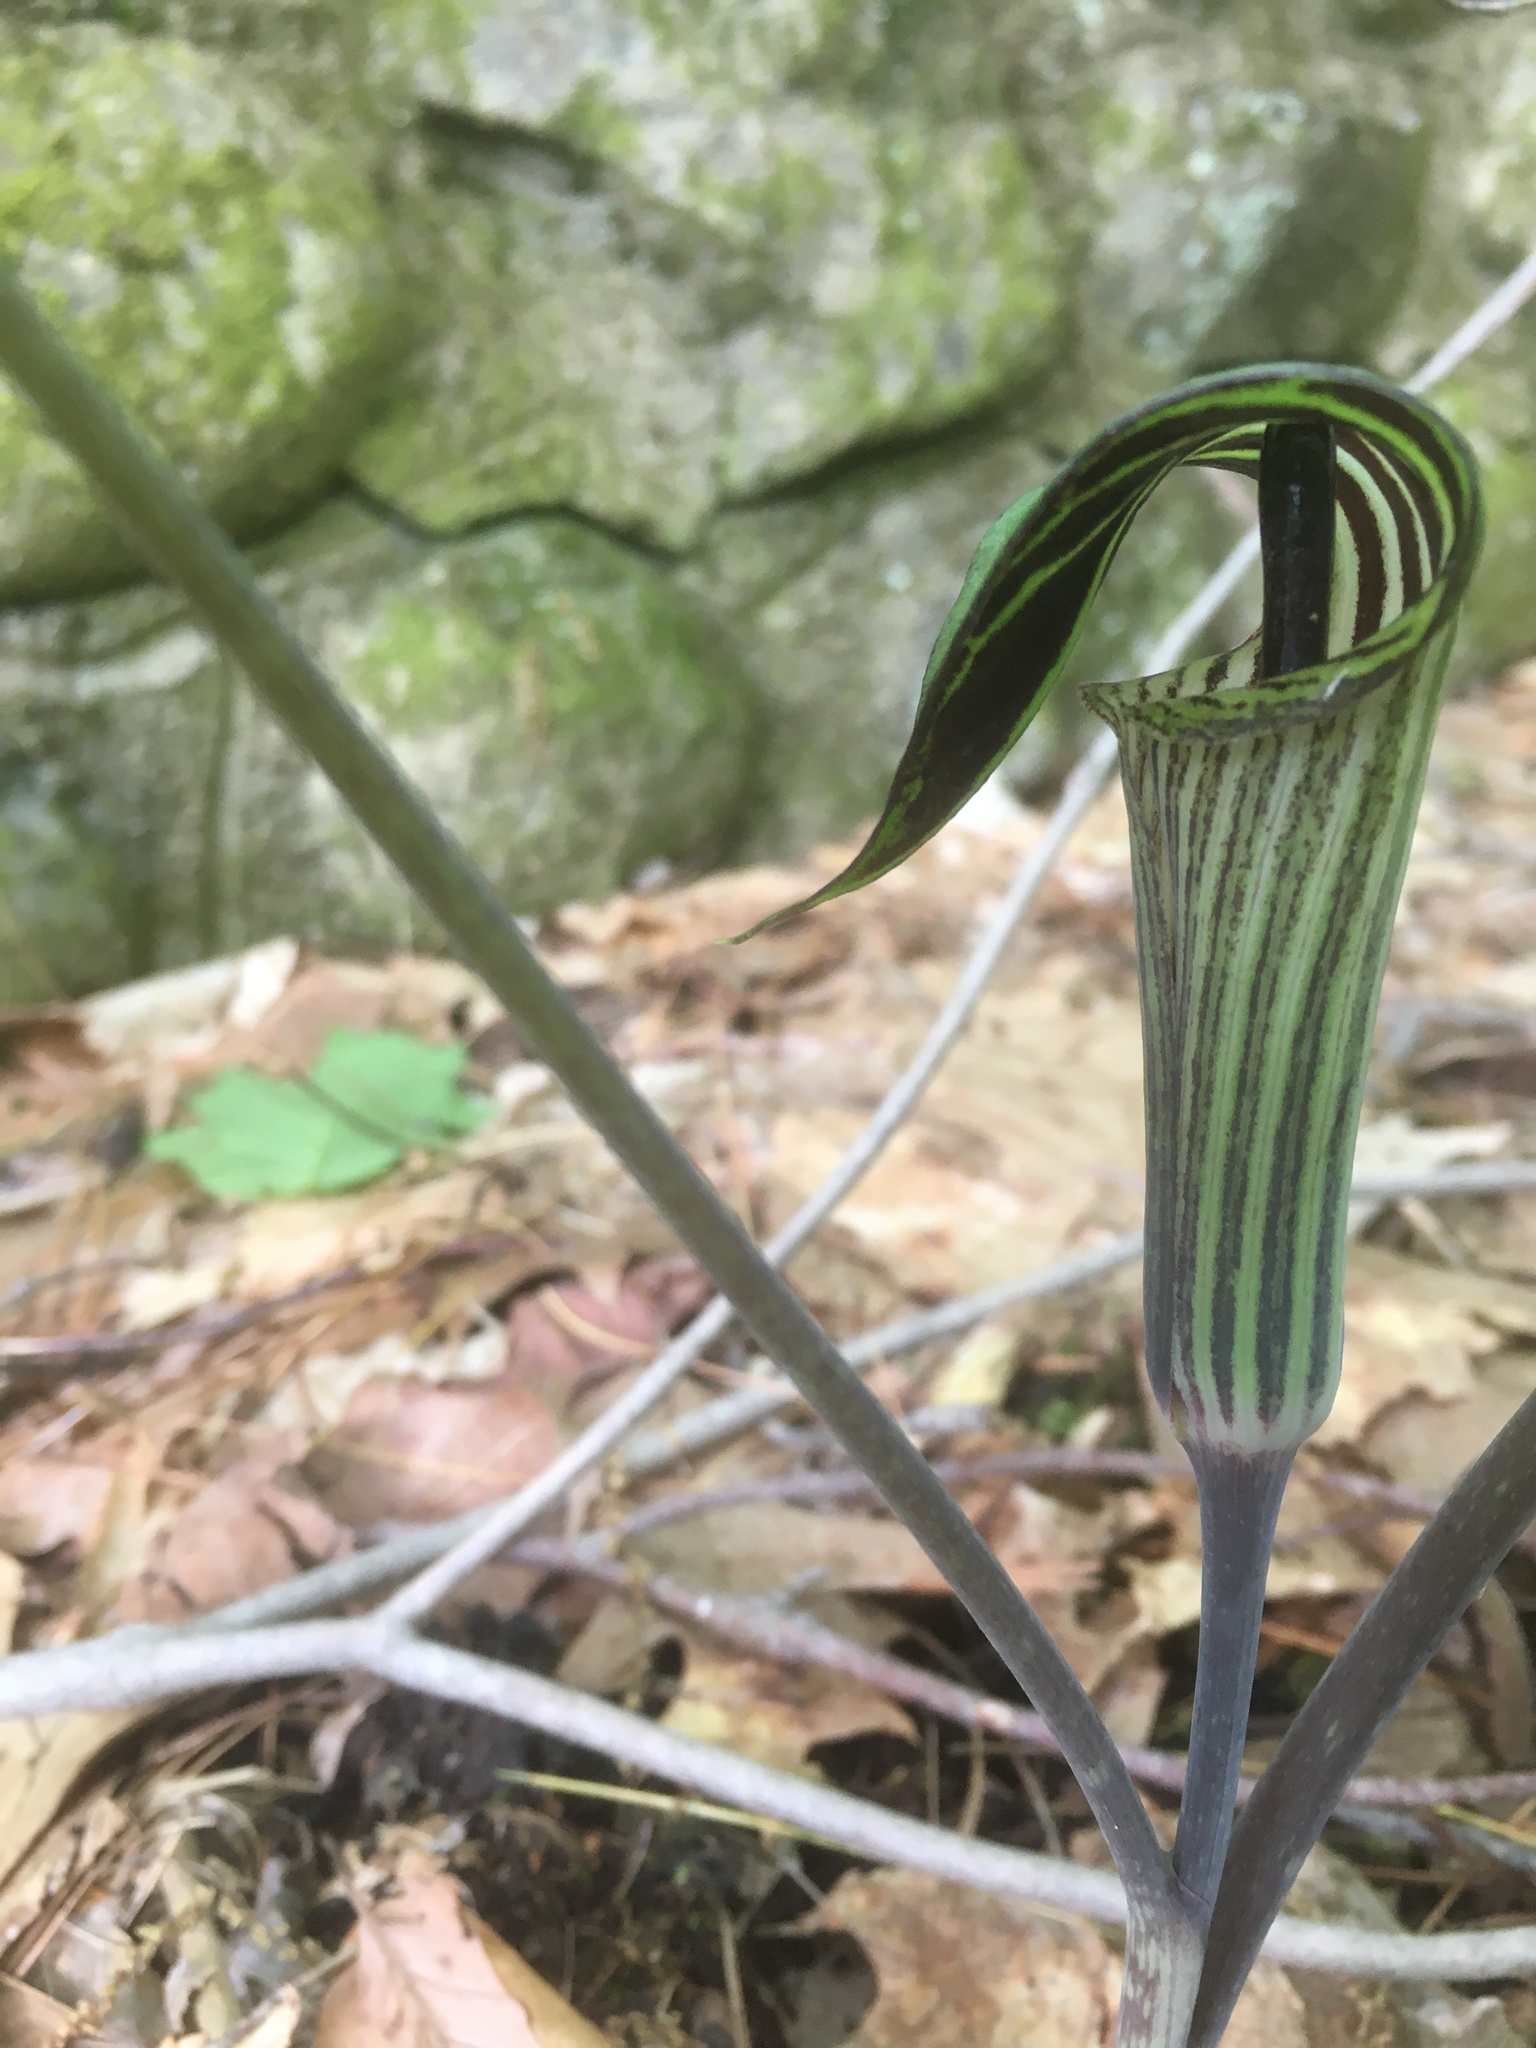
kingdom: Plantae
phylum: Tracheophyta
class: Liliopsida
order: Alismatales
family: Araceae
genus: Arisaema
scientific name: Arisaema triphyllum
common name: Jack-in-the-pulpit
